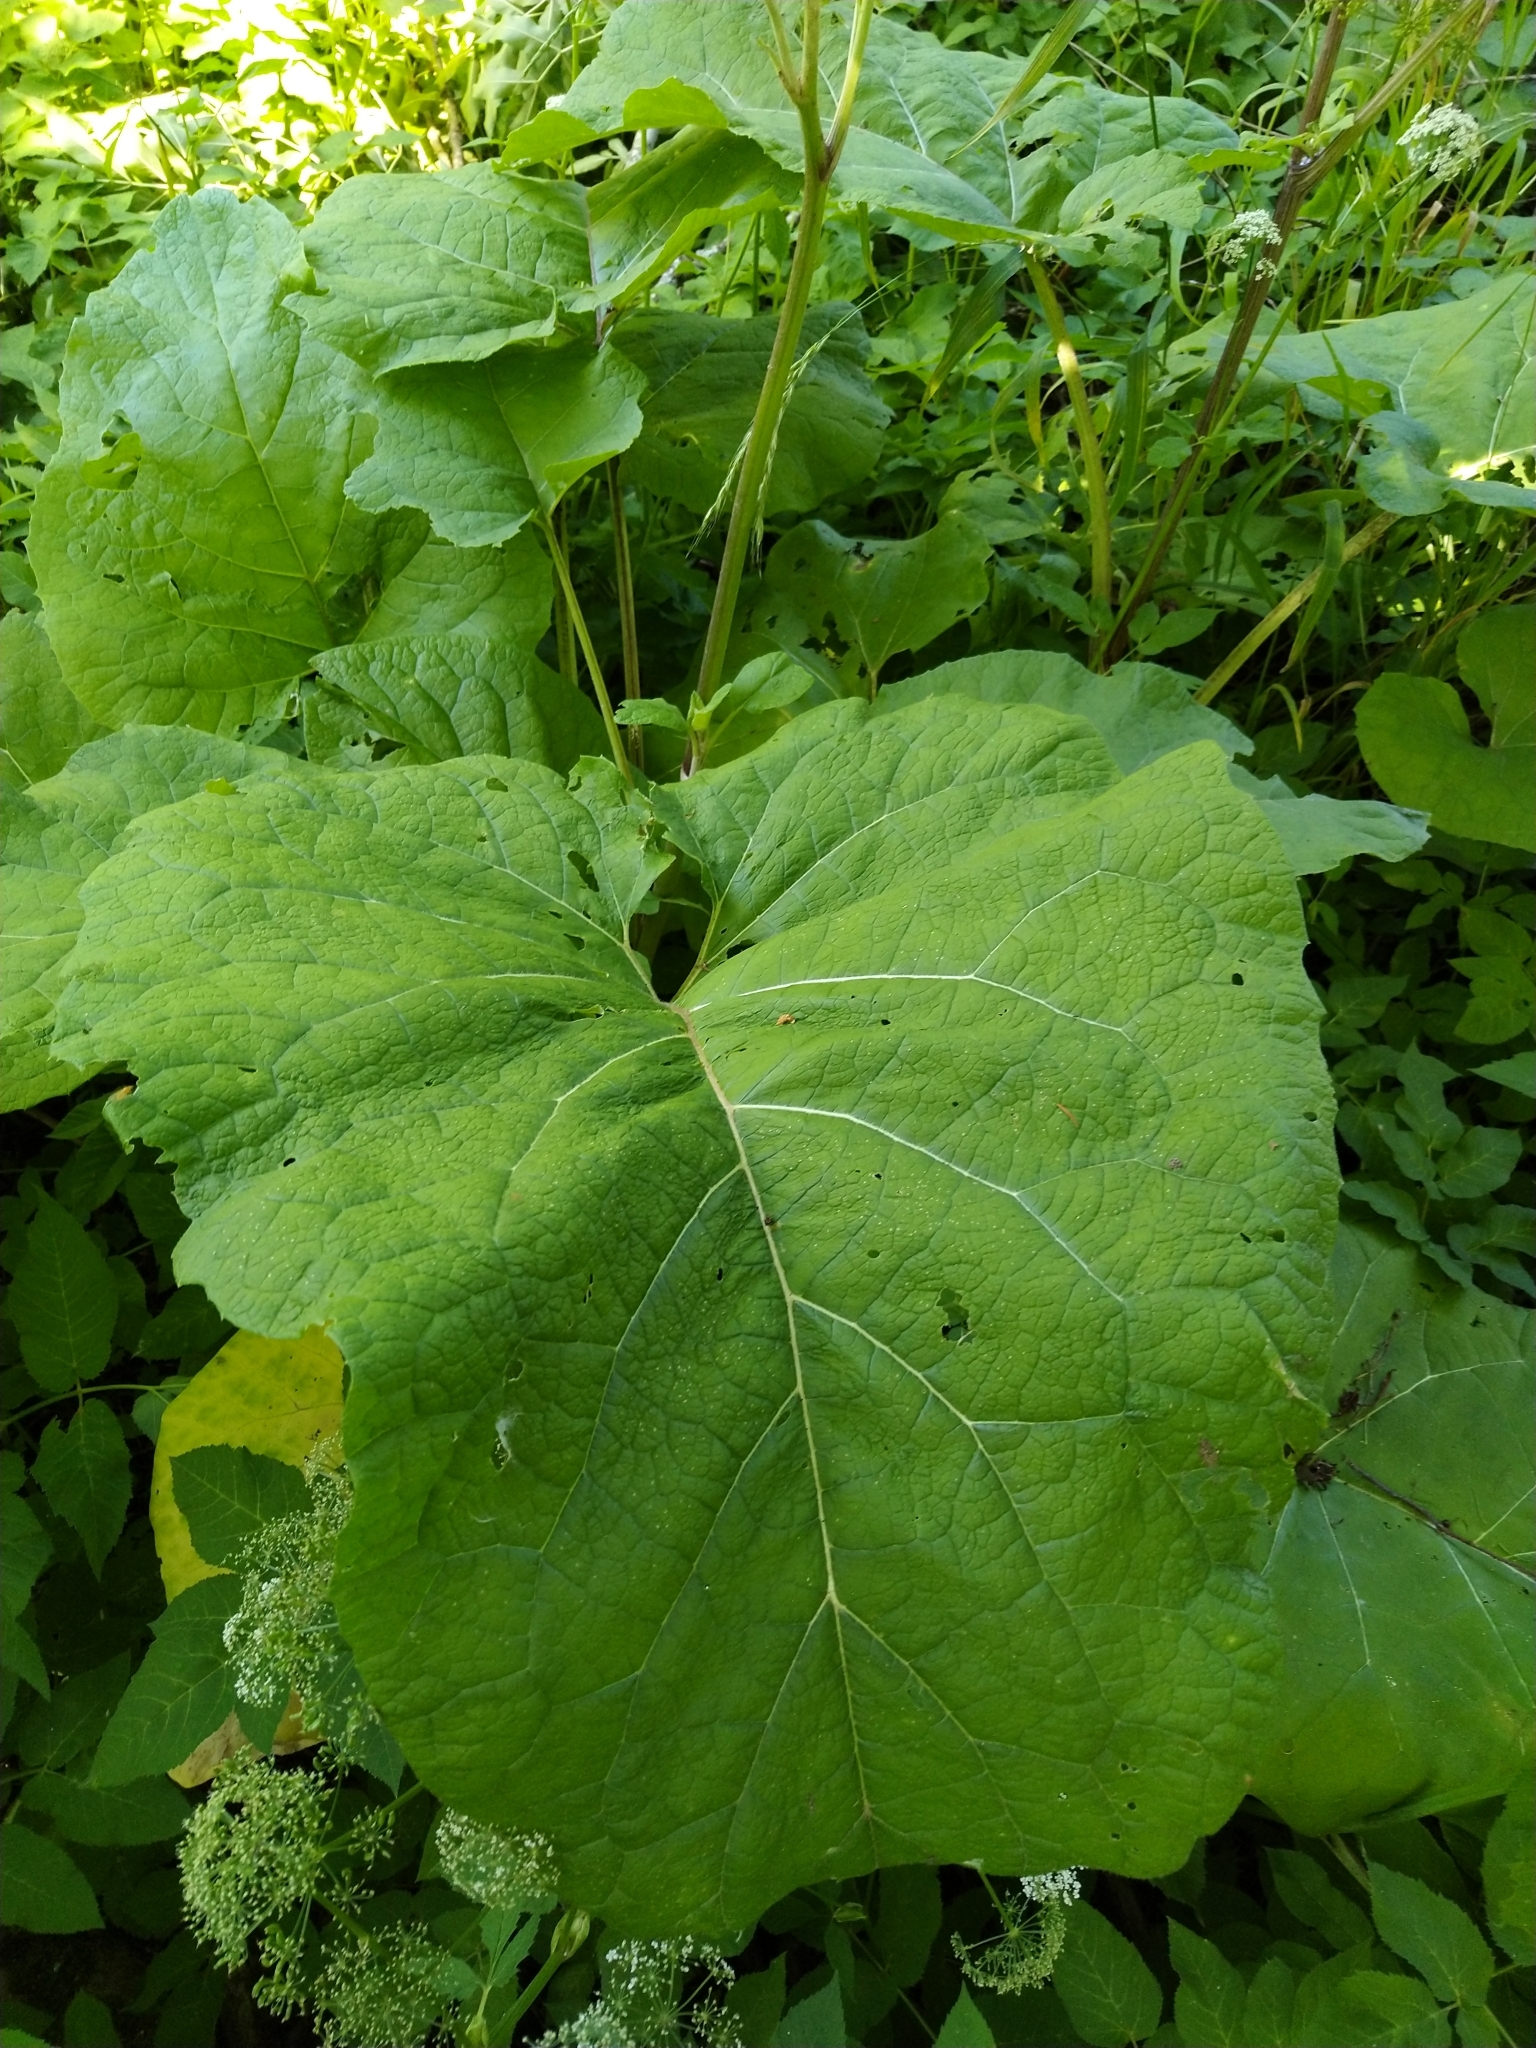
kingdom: Plantae
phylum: Tracheophyta
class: Magnoliopsida
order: Asterales
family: Asteraceae
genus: Arctium
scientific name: Arctium tomentosum
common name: Woolly burdock
